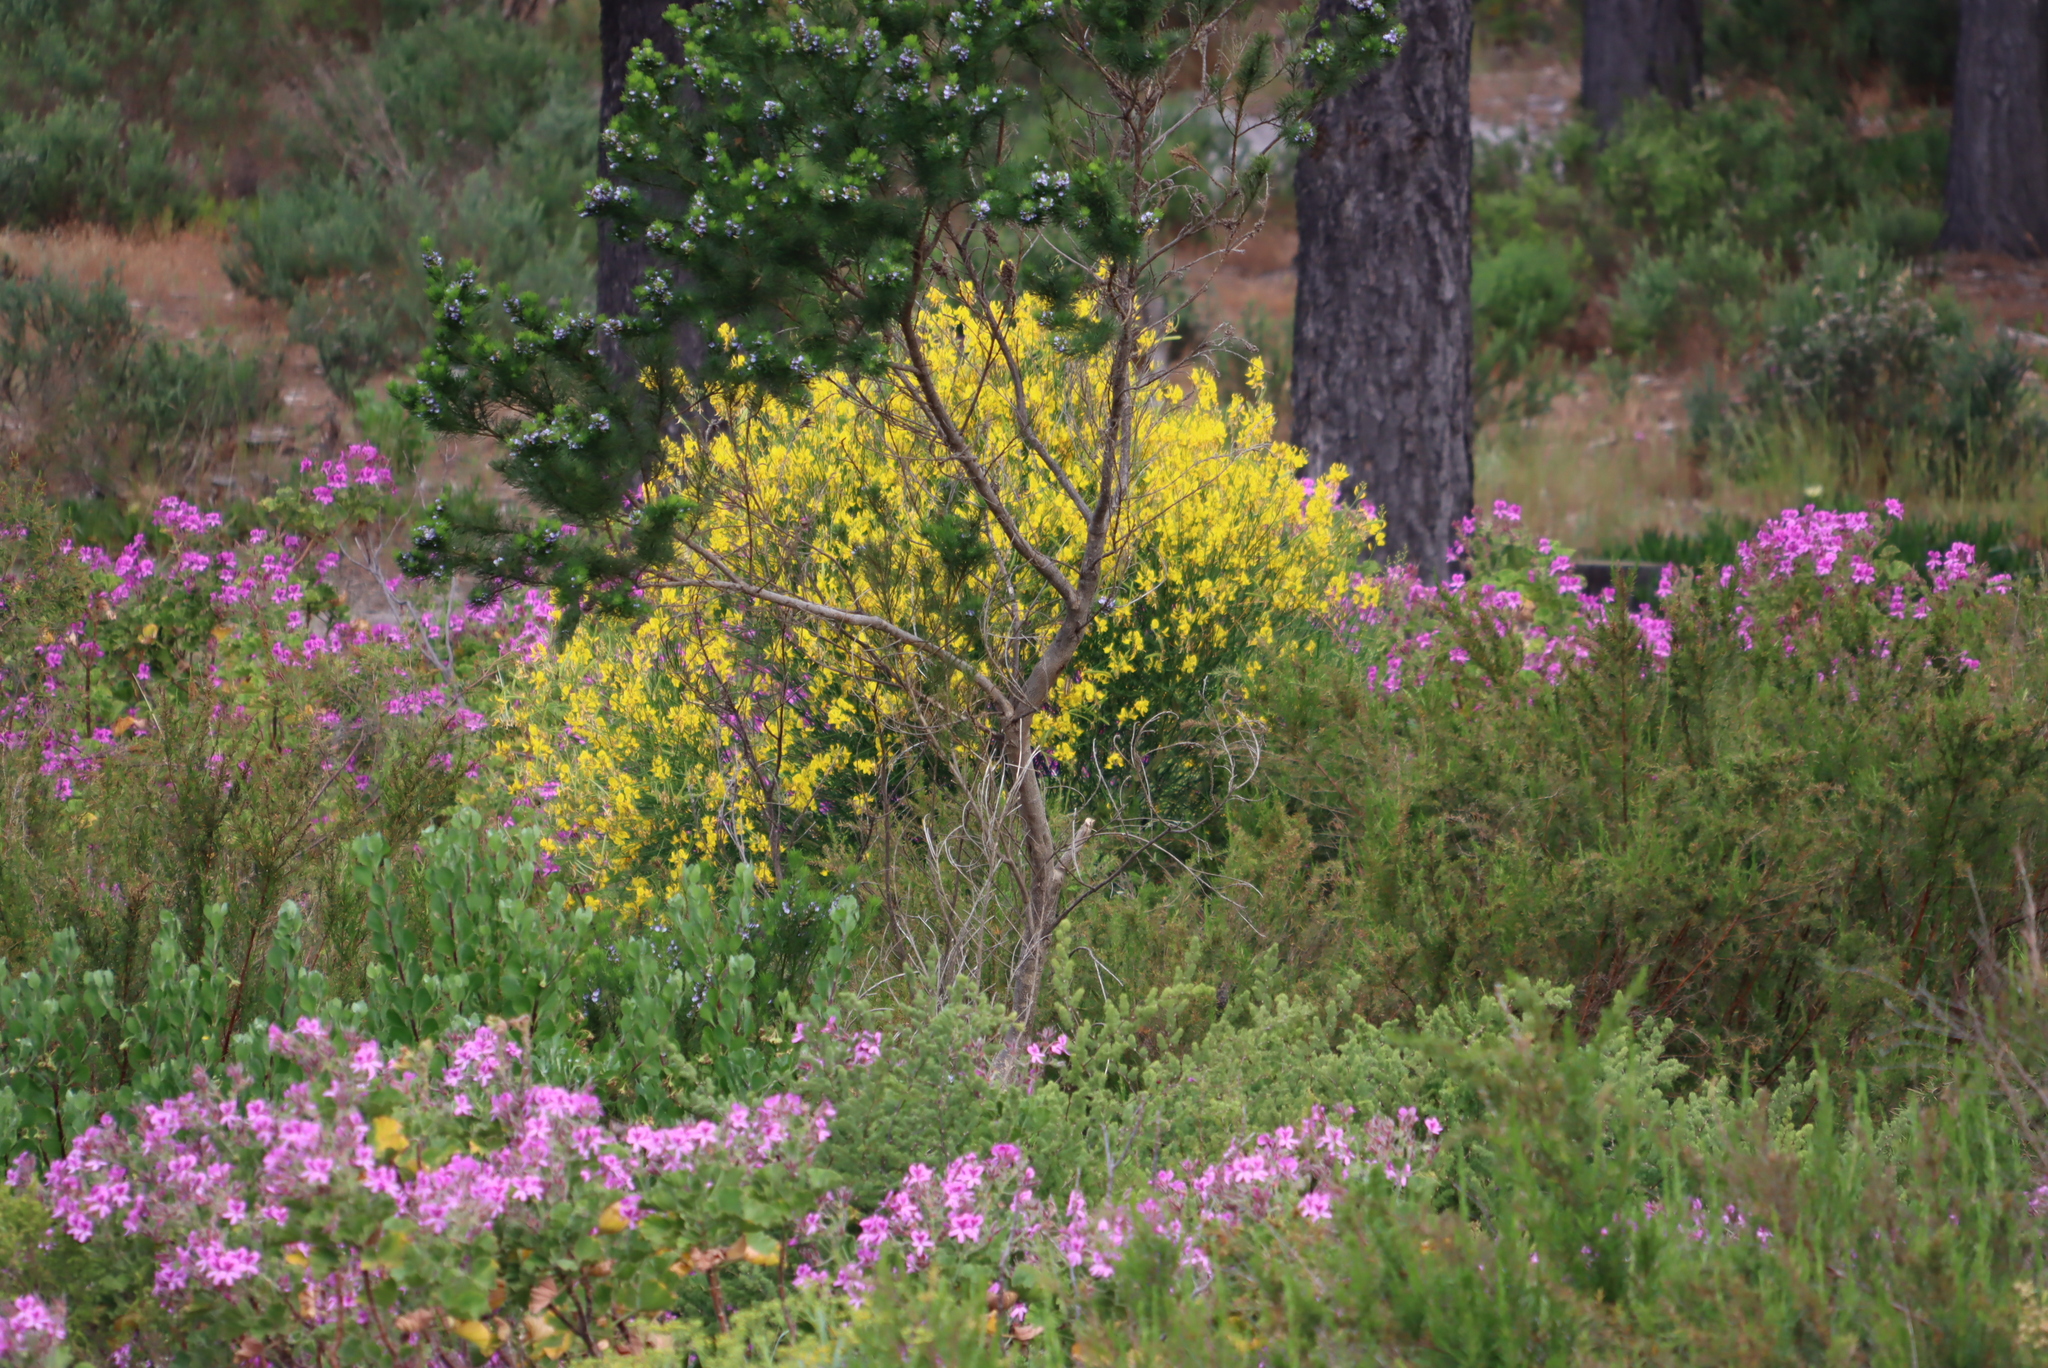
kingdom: Plantae
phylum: Tracheophyta
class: Magnoliopsida
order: Fabales
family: Fabaceae
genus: Spartium
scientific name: Spartium junceum
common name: Spanish broom
